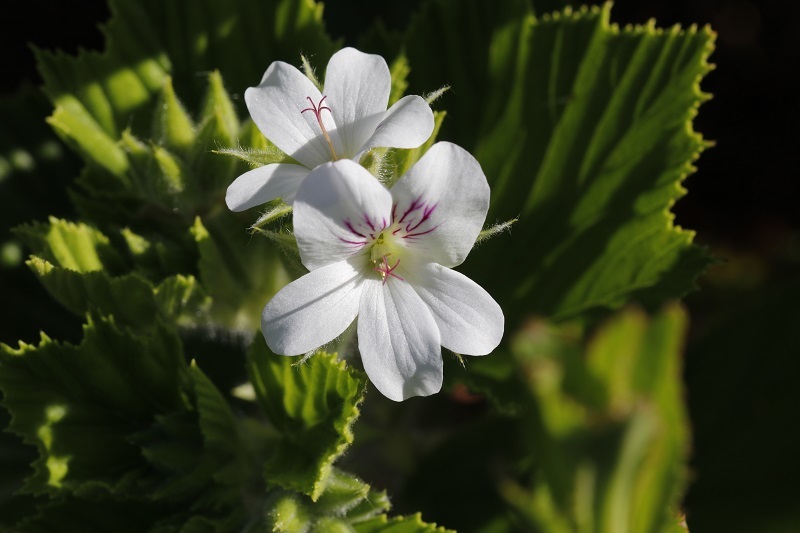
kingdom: Plantae
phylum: Tracheophyta
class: Magnoliopsida
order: Geraniales
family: Geraniaceae
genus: Pelargonium
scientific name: Pelargonium cucullatum
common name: Tree pelargonium
